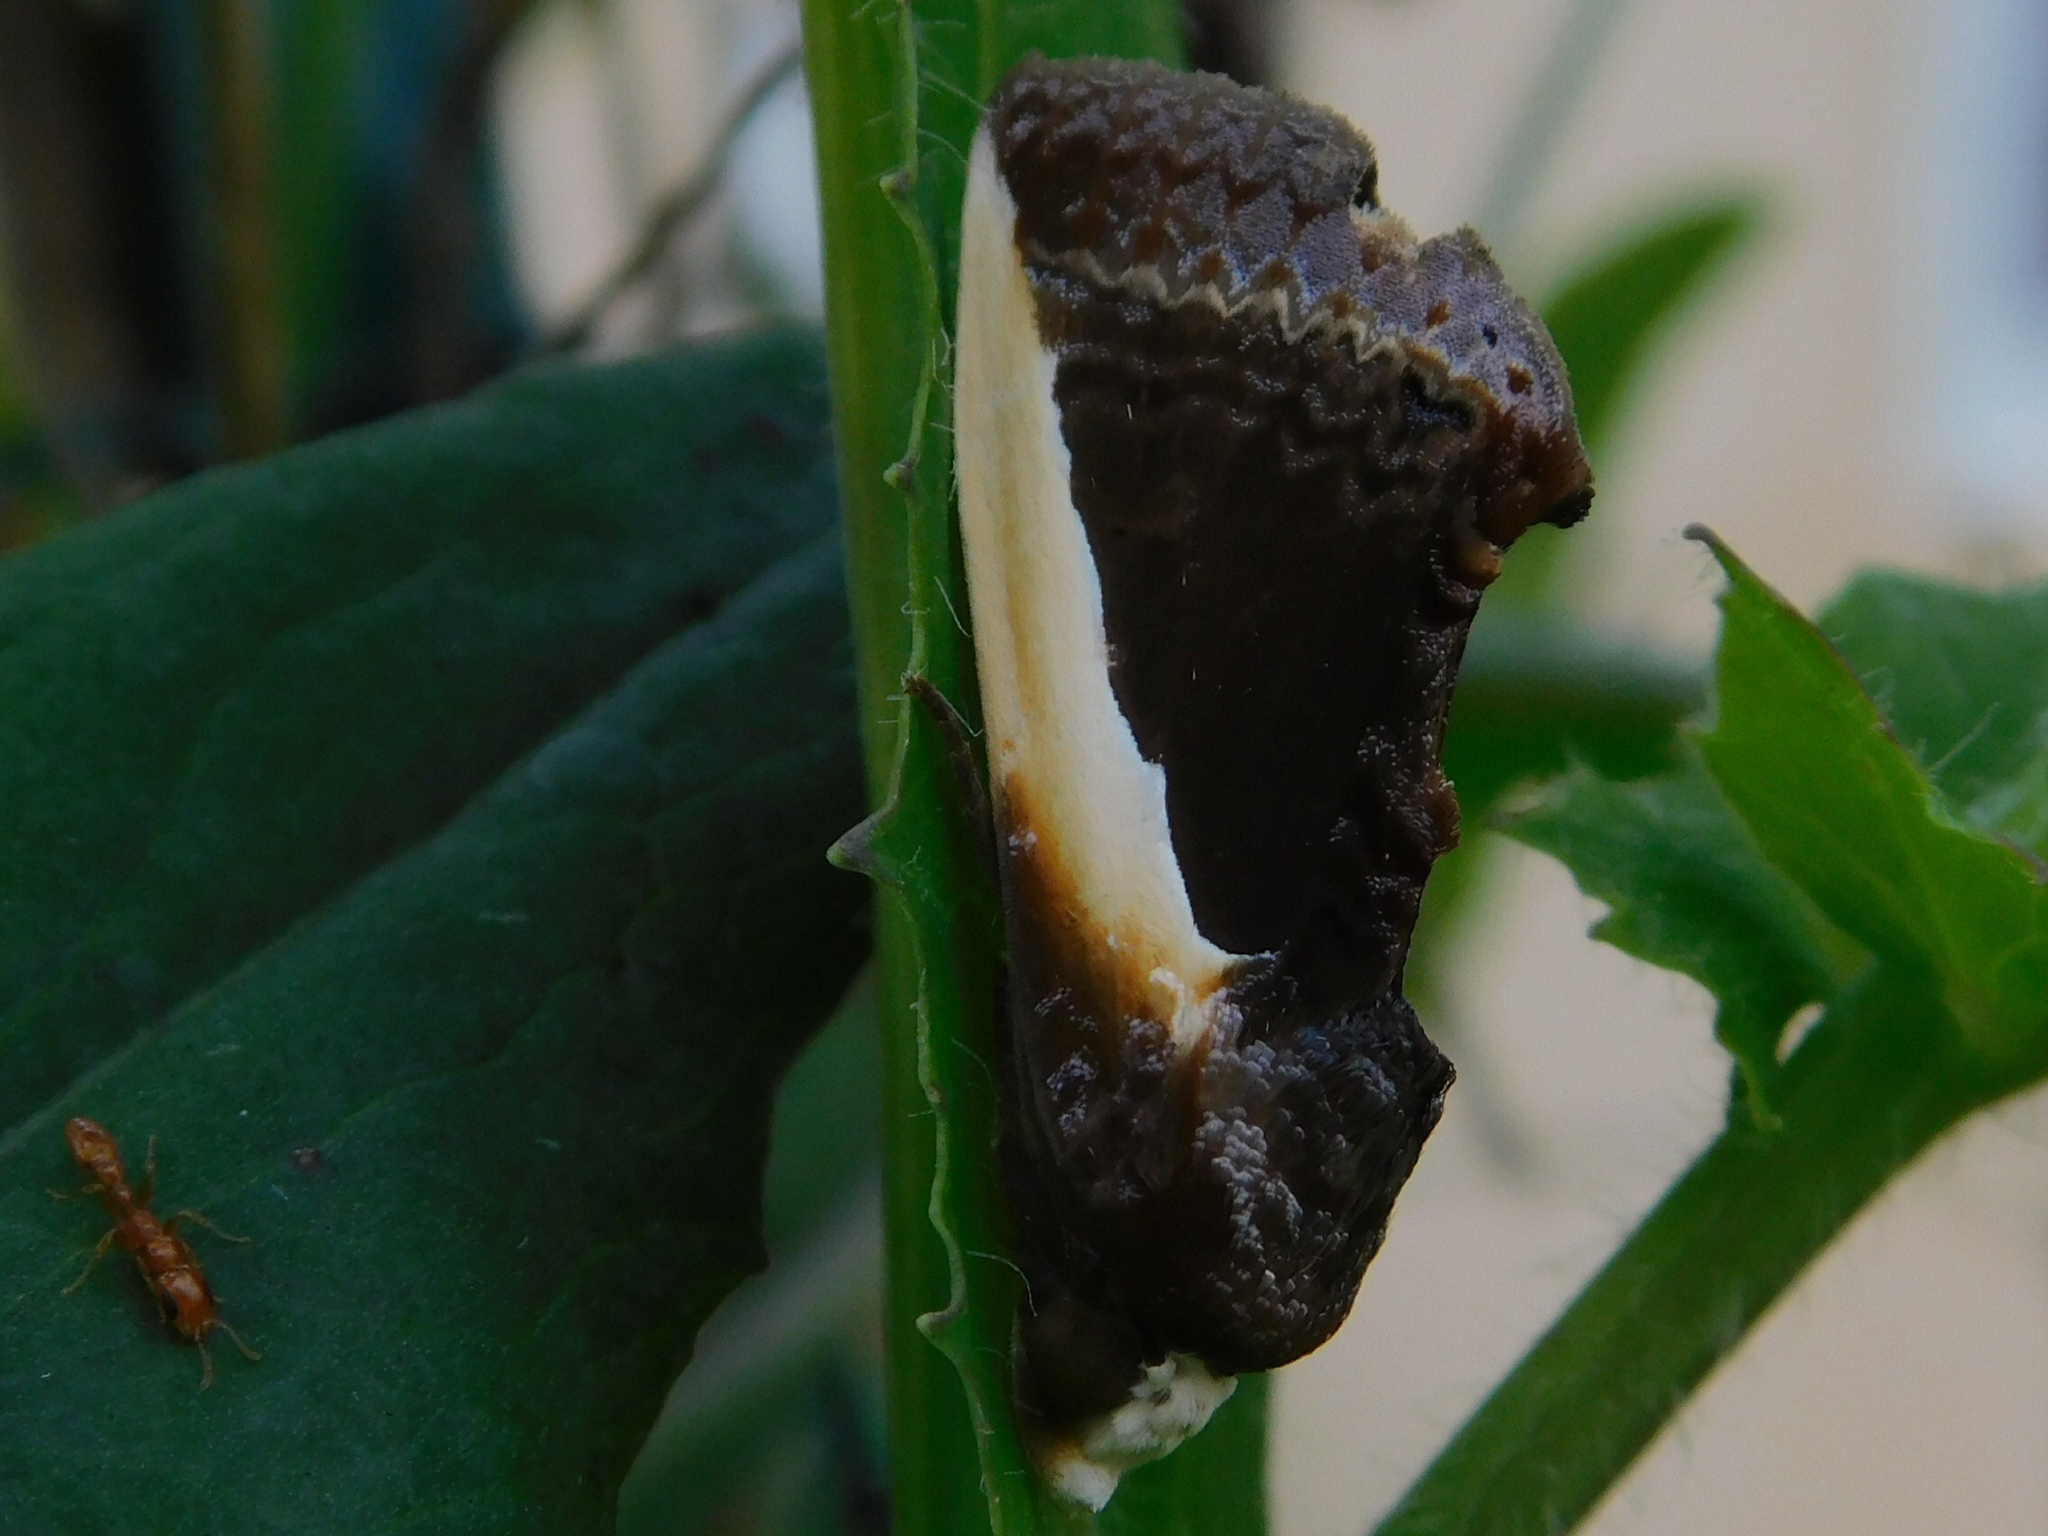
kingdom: Animalia
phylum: Arthropoda
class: Insecta
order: Lepidoptera
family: Erebidae
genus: Gonodonta
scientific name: Gonodonta nutrix
